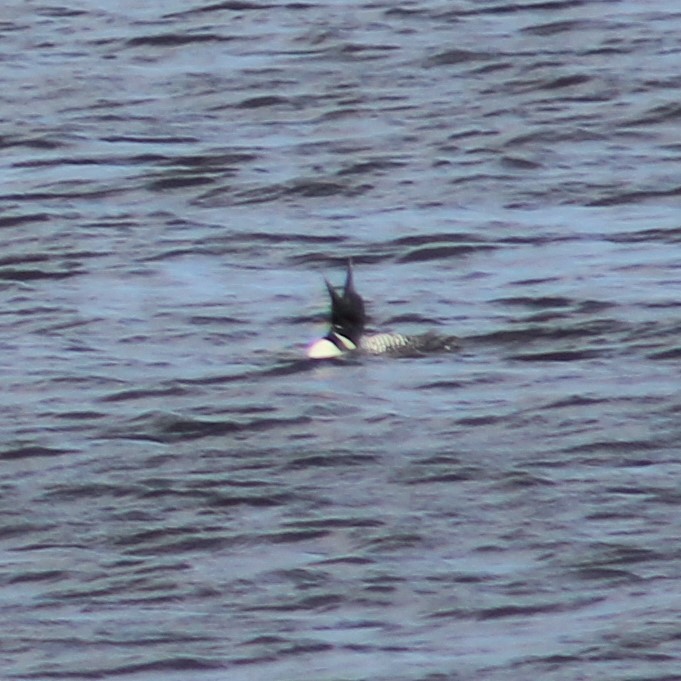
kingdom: Animalia
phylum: Chordata
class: Aves
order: Gaviiformes
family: Gaviidae
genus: Gavia
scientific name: Gavia immer
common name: Common loon
